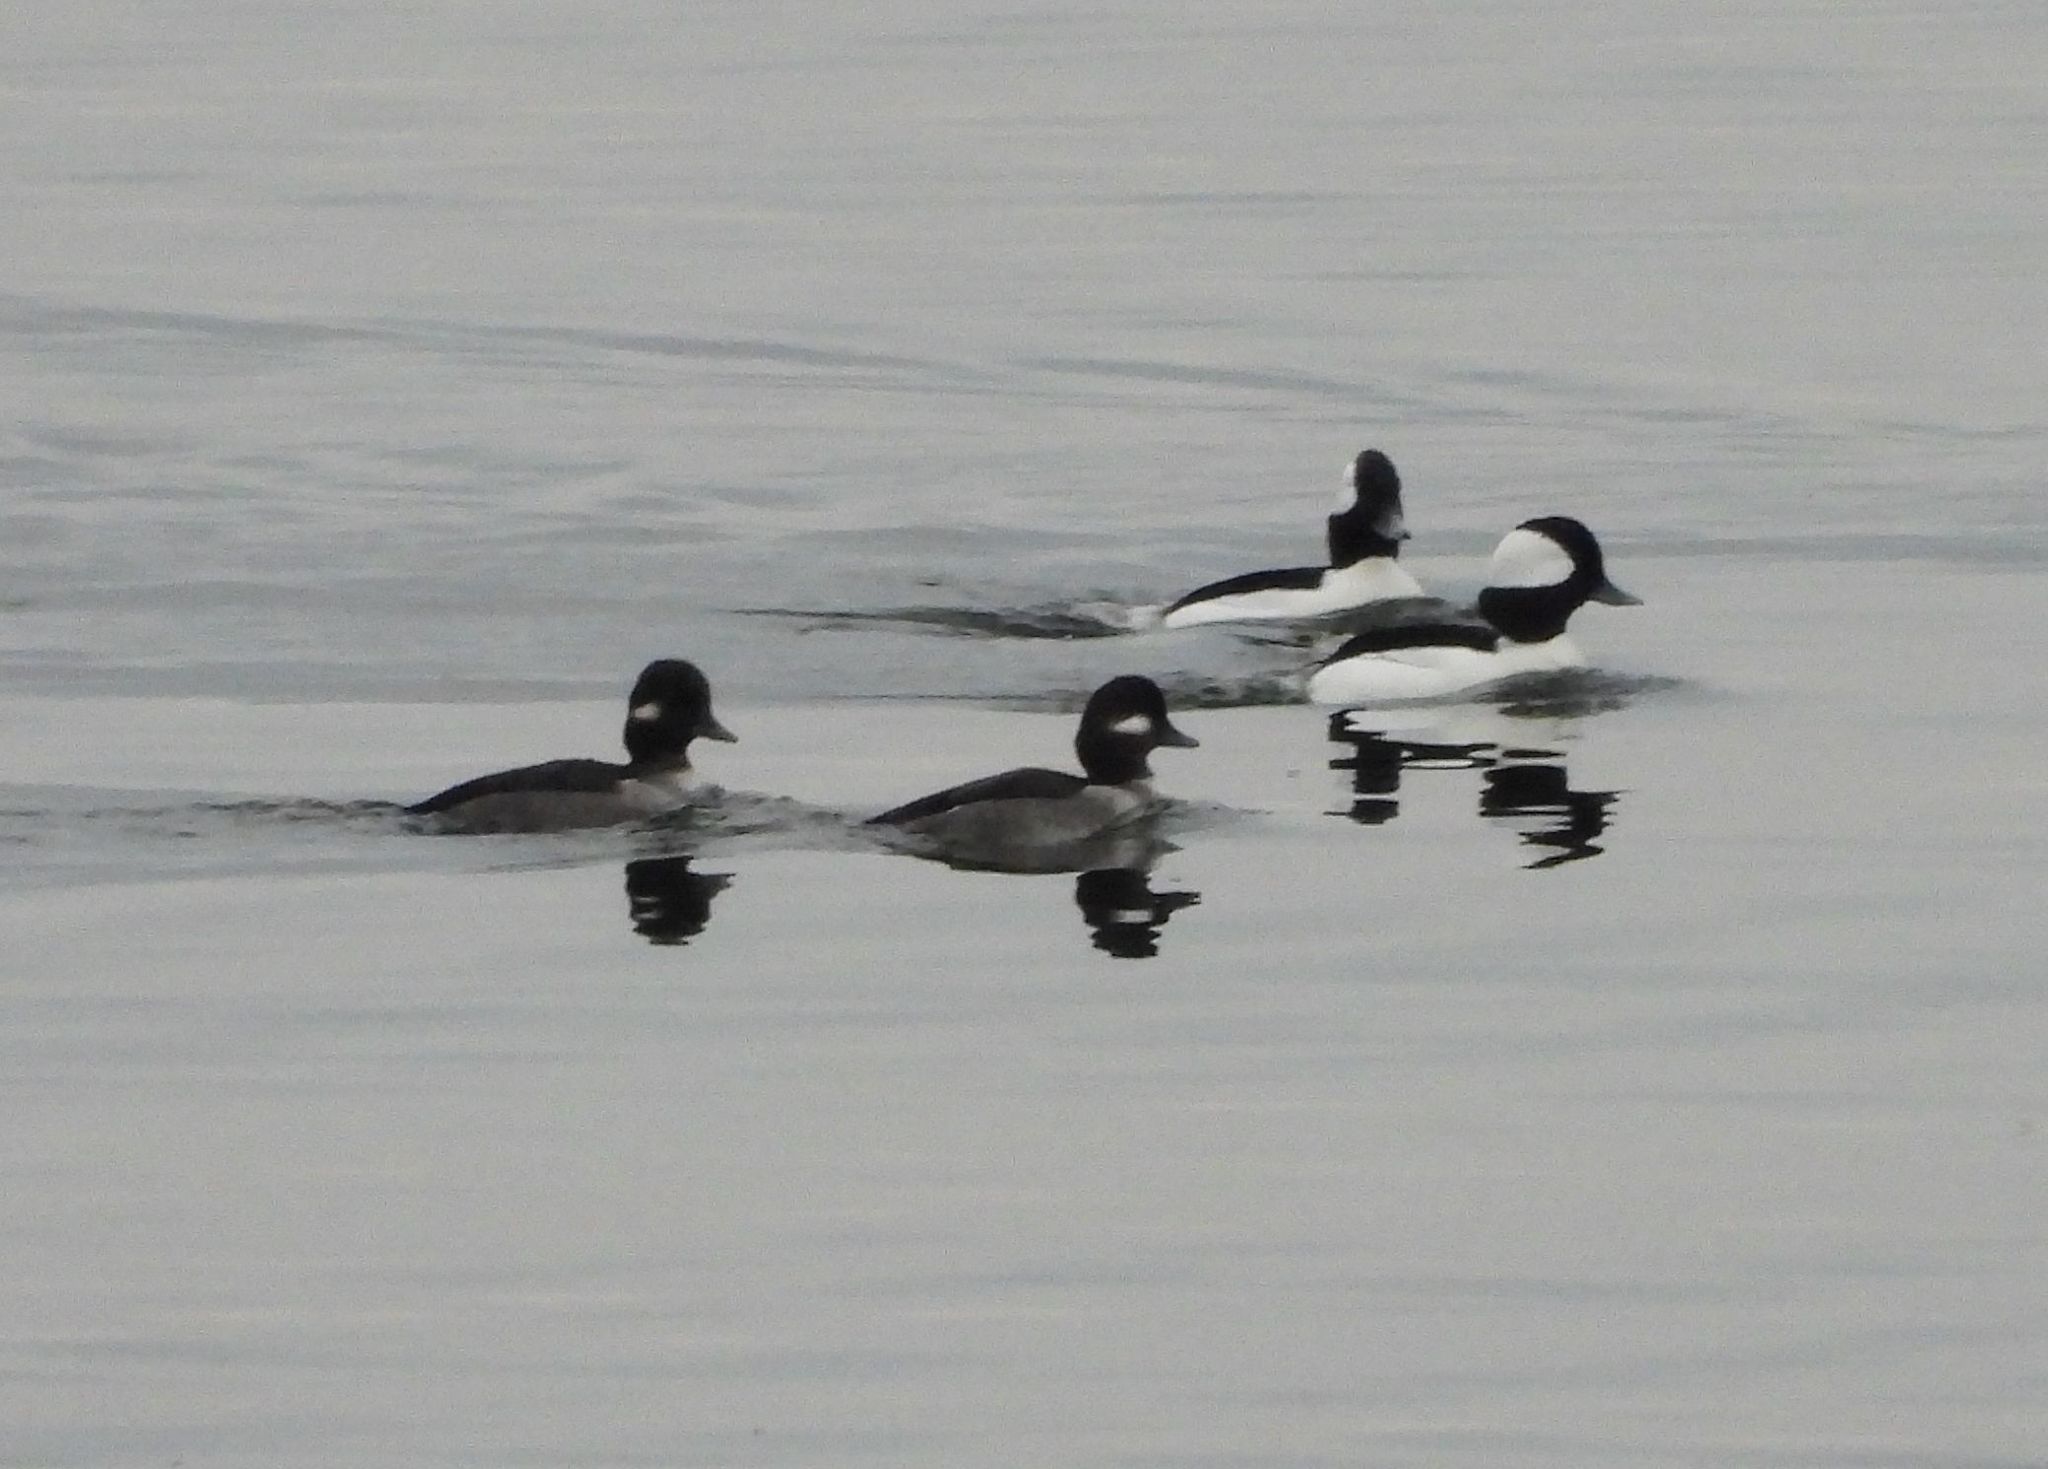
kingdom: Animalia
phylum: Chordata
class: Aves
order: Anseriformes
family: Anatidae
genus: Bucephala
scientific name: Bucephala albeola
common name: Bufflehead
